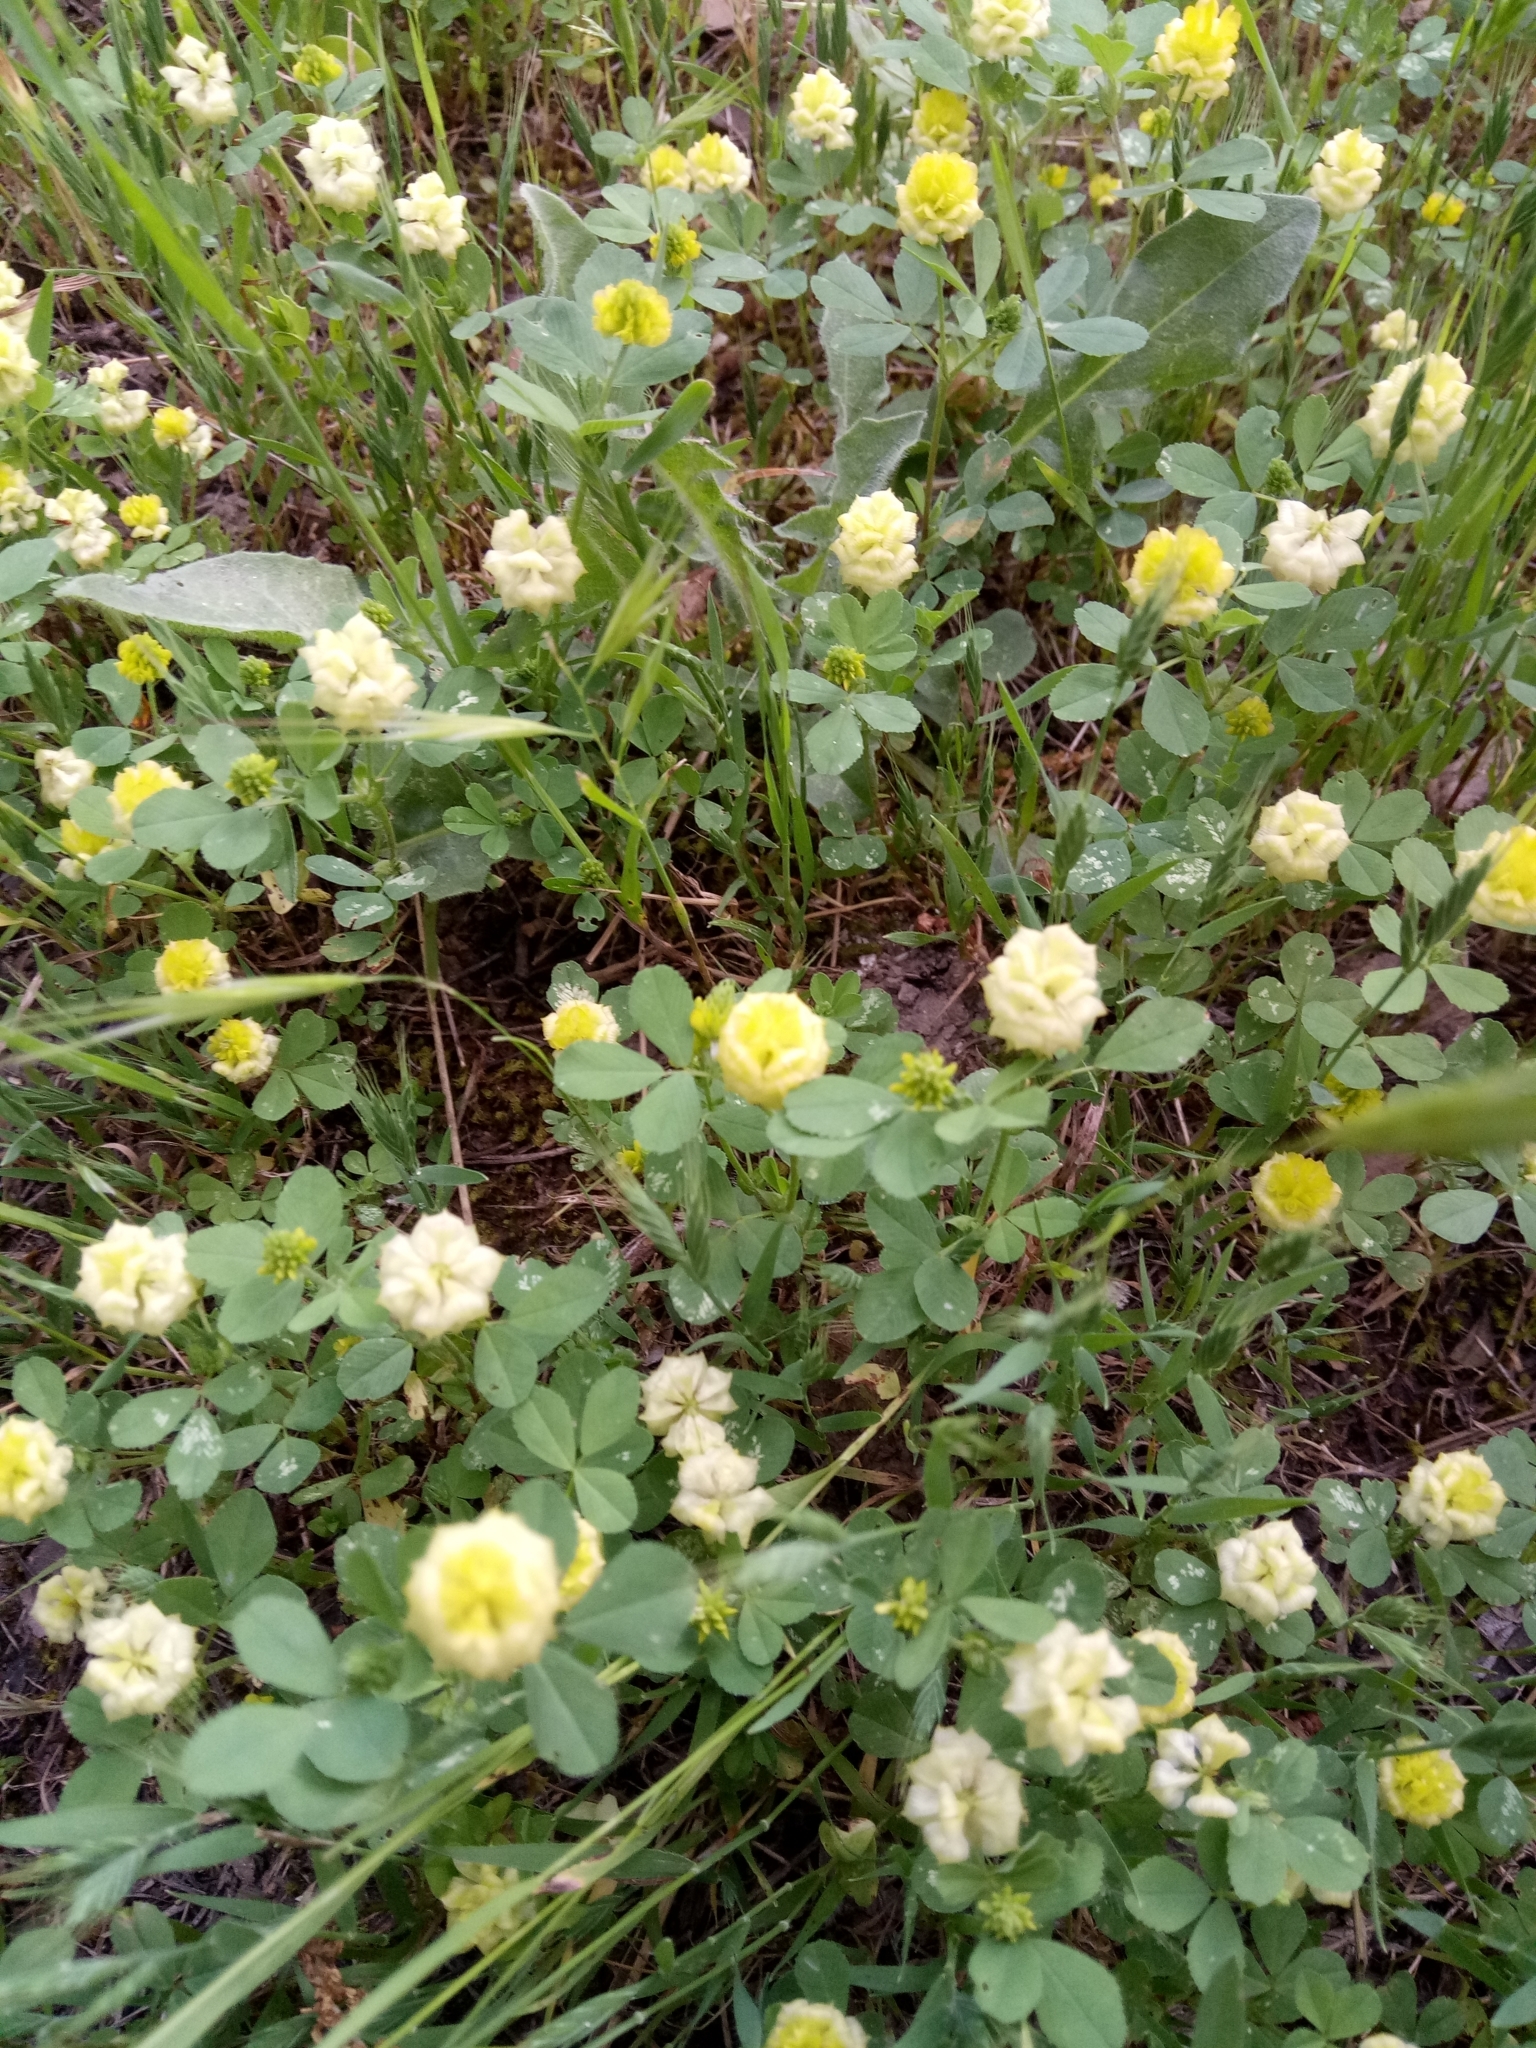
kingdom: Plantae
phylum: Tracheophyta
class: Magnoliopsida
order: Fabales
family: Fabaceae
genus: Trifolium
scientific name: Trifolium campestre
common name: Field clover
